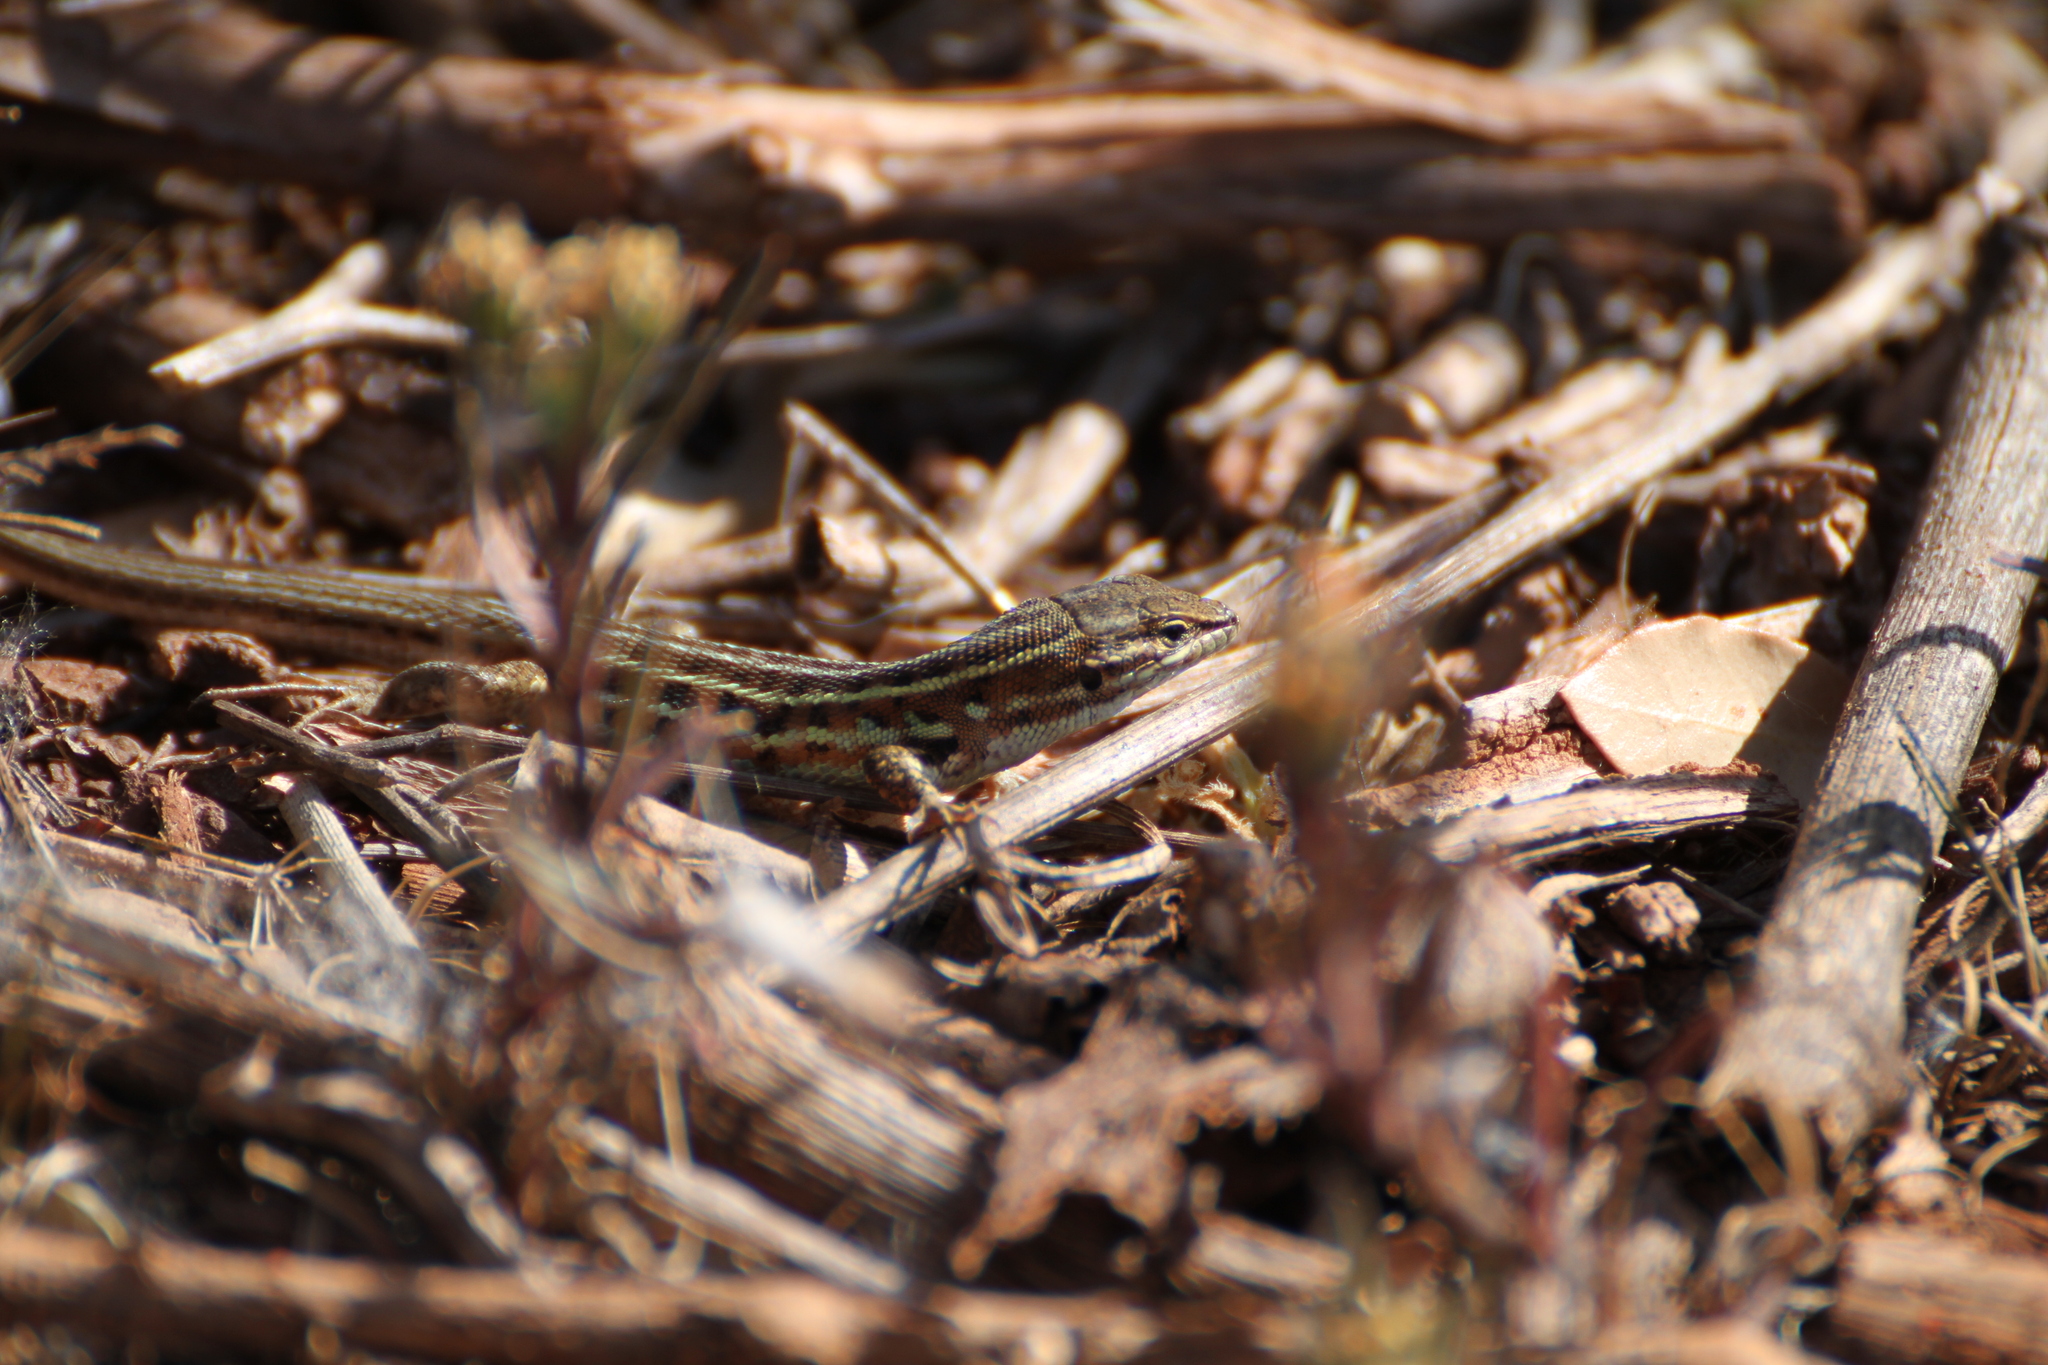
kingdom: Animalia
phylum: Chordata
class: Squamata
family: Lacertidae
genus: Psammodromus
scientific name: Psammodromus edwarsianus
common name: East iberian psammodromus
